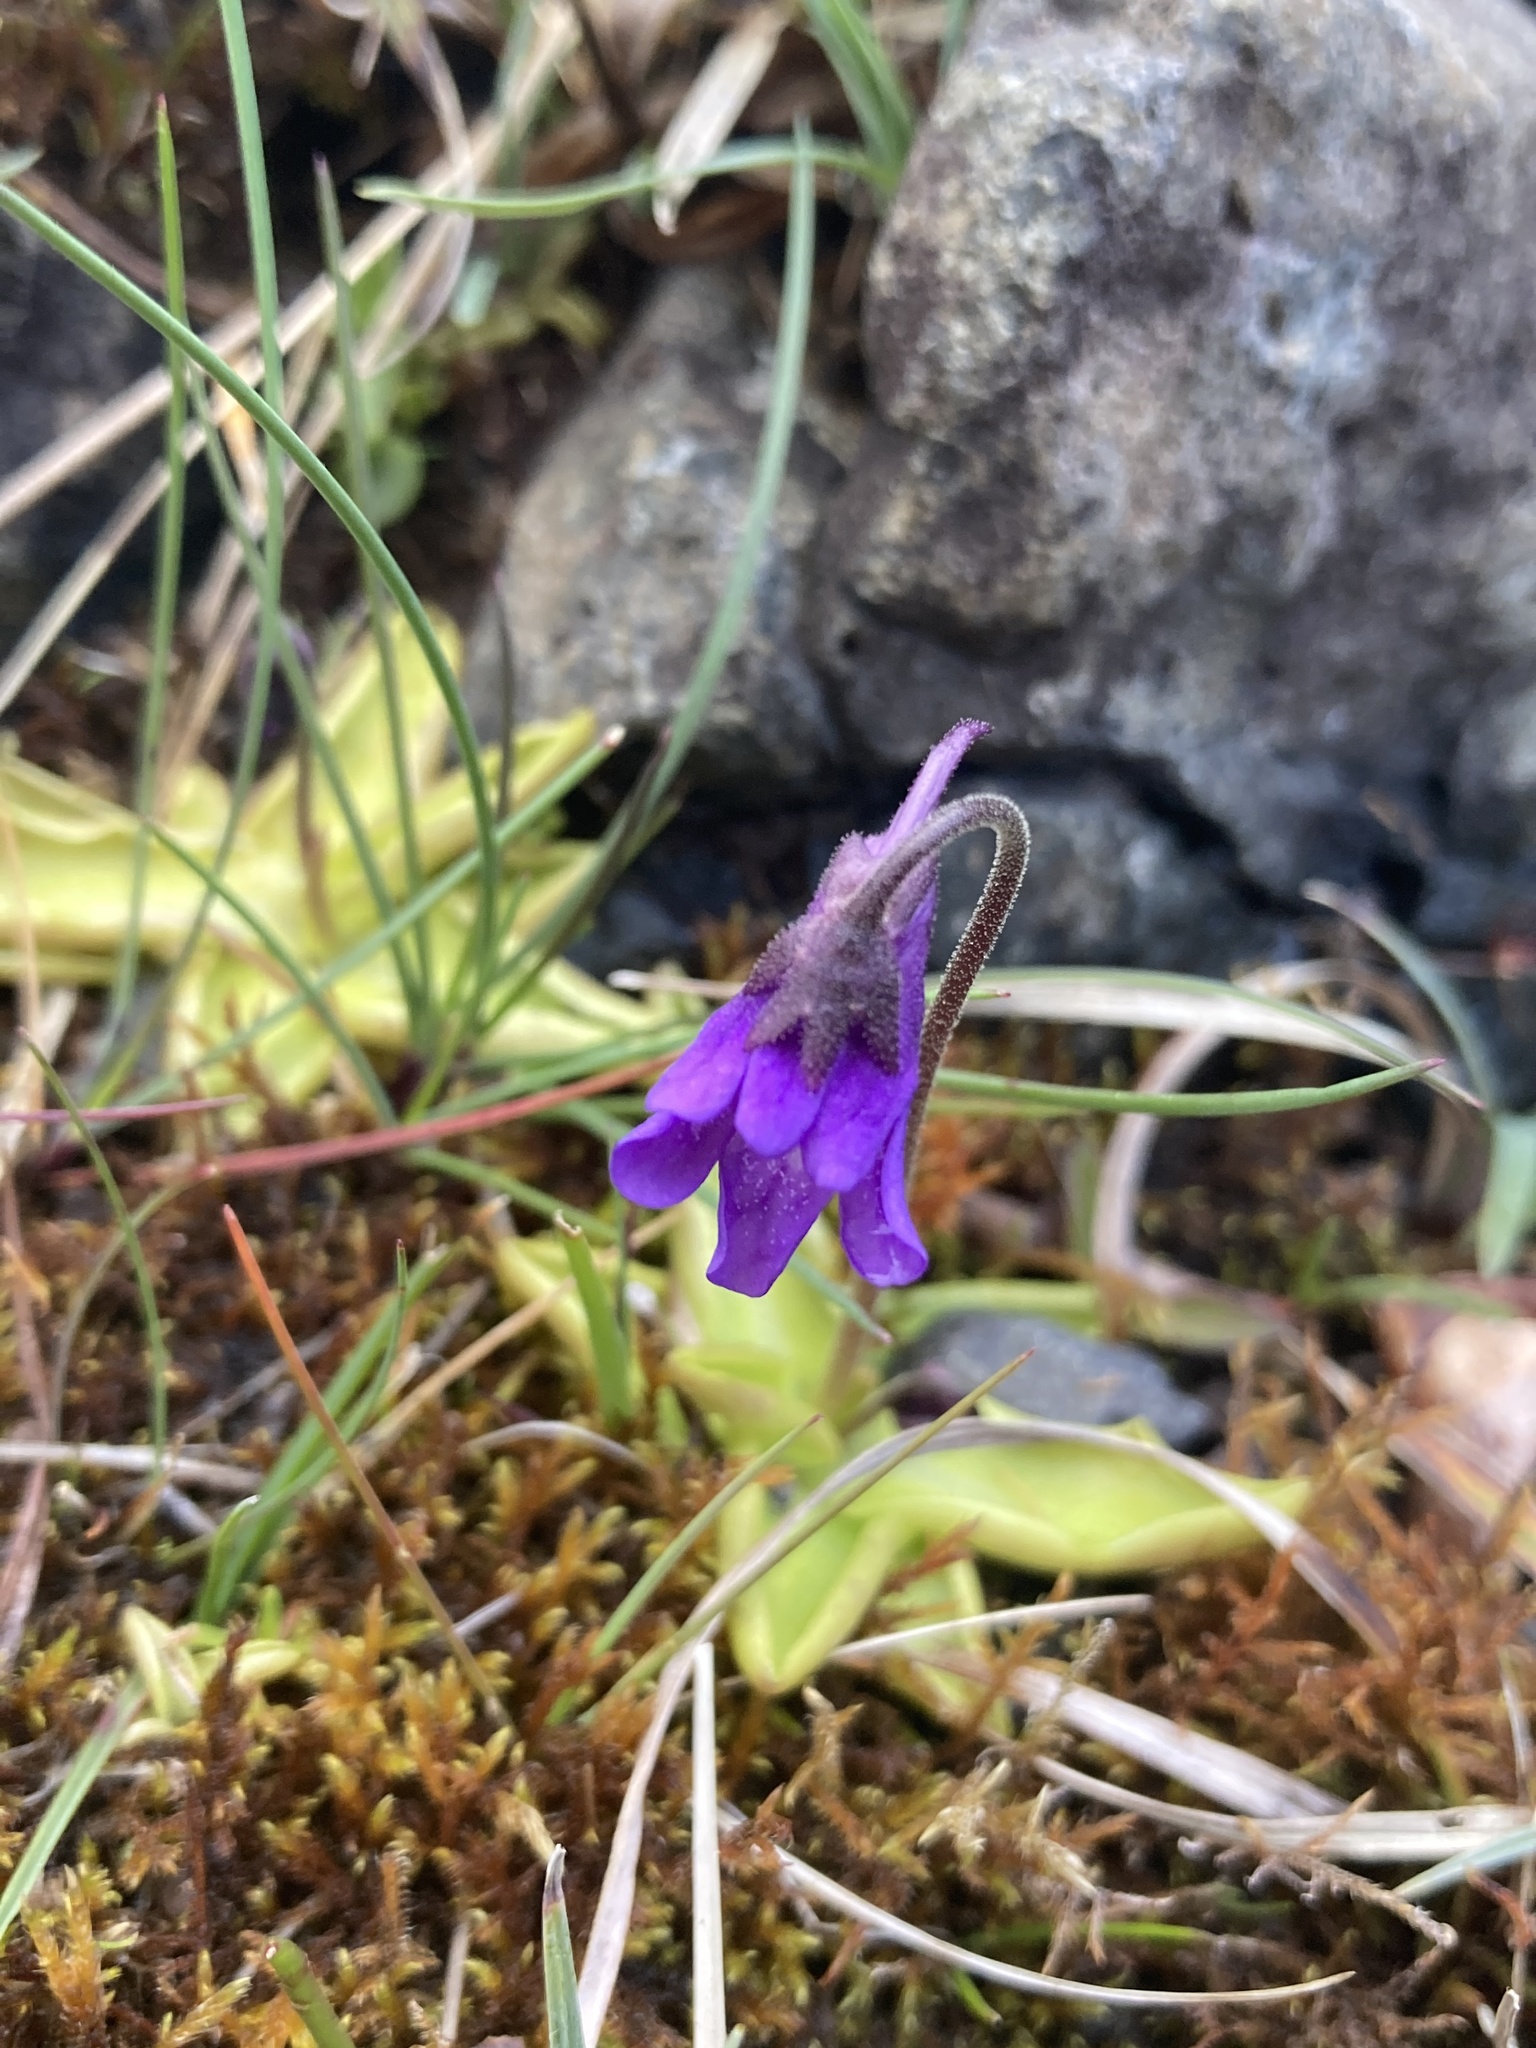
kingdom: Plantae
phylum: Tracheophyta
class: Magnoliopsida
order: Lamiales
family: Lentibulariaceae
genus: Pinguicula
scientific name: Pinguicula vulgaris
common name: Common butterwort
